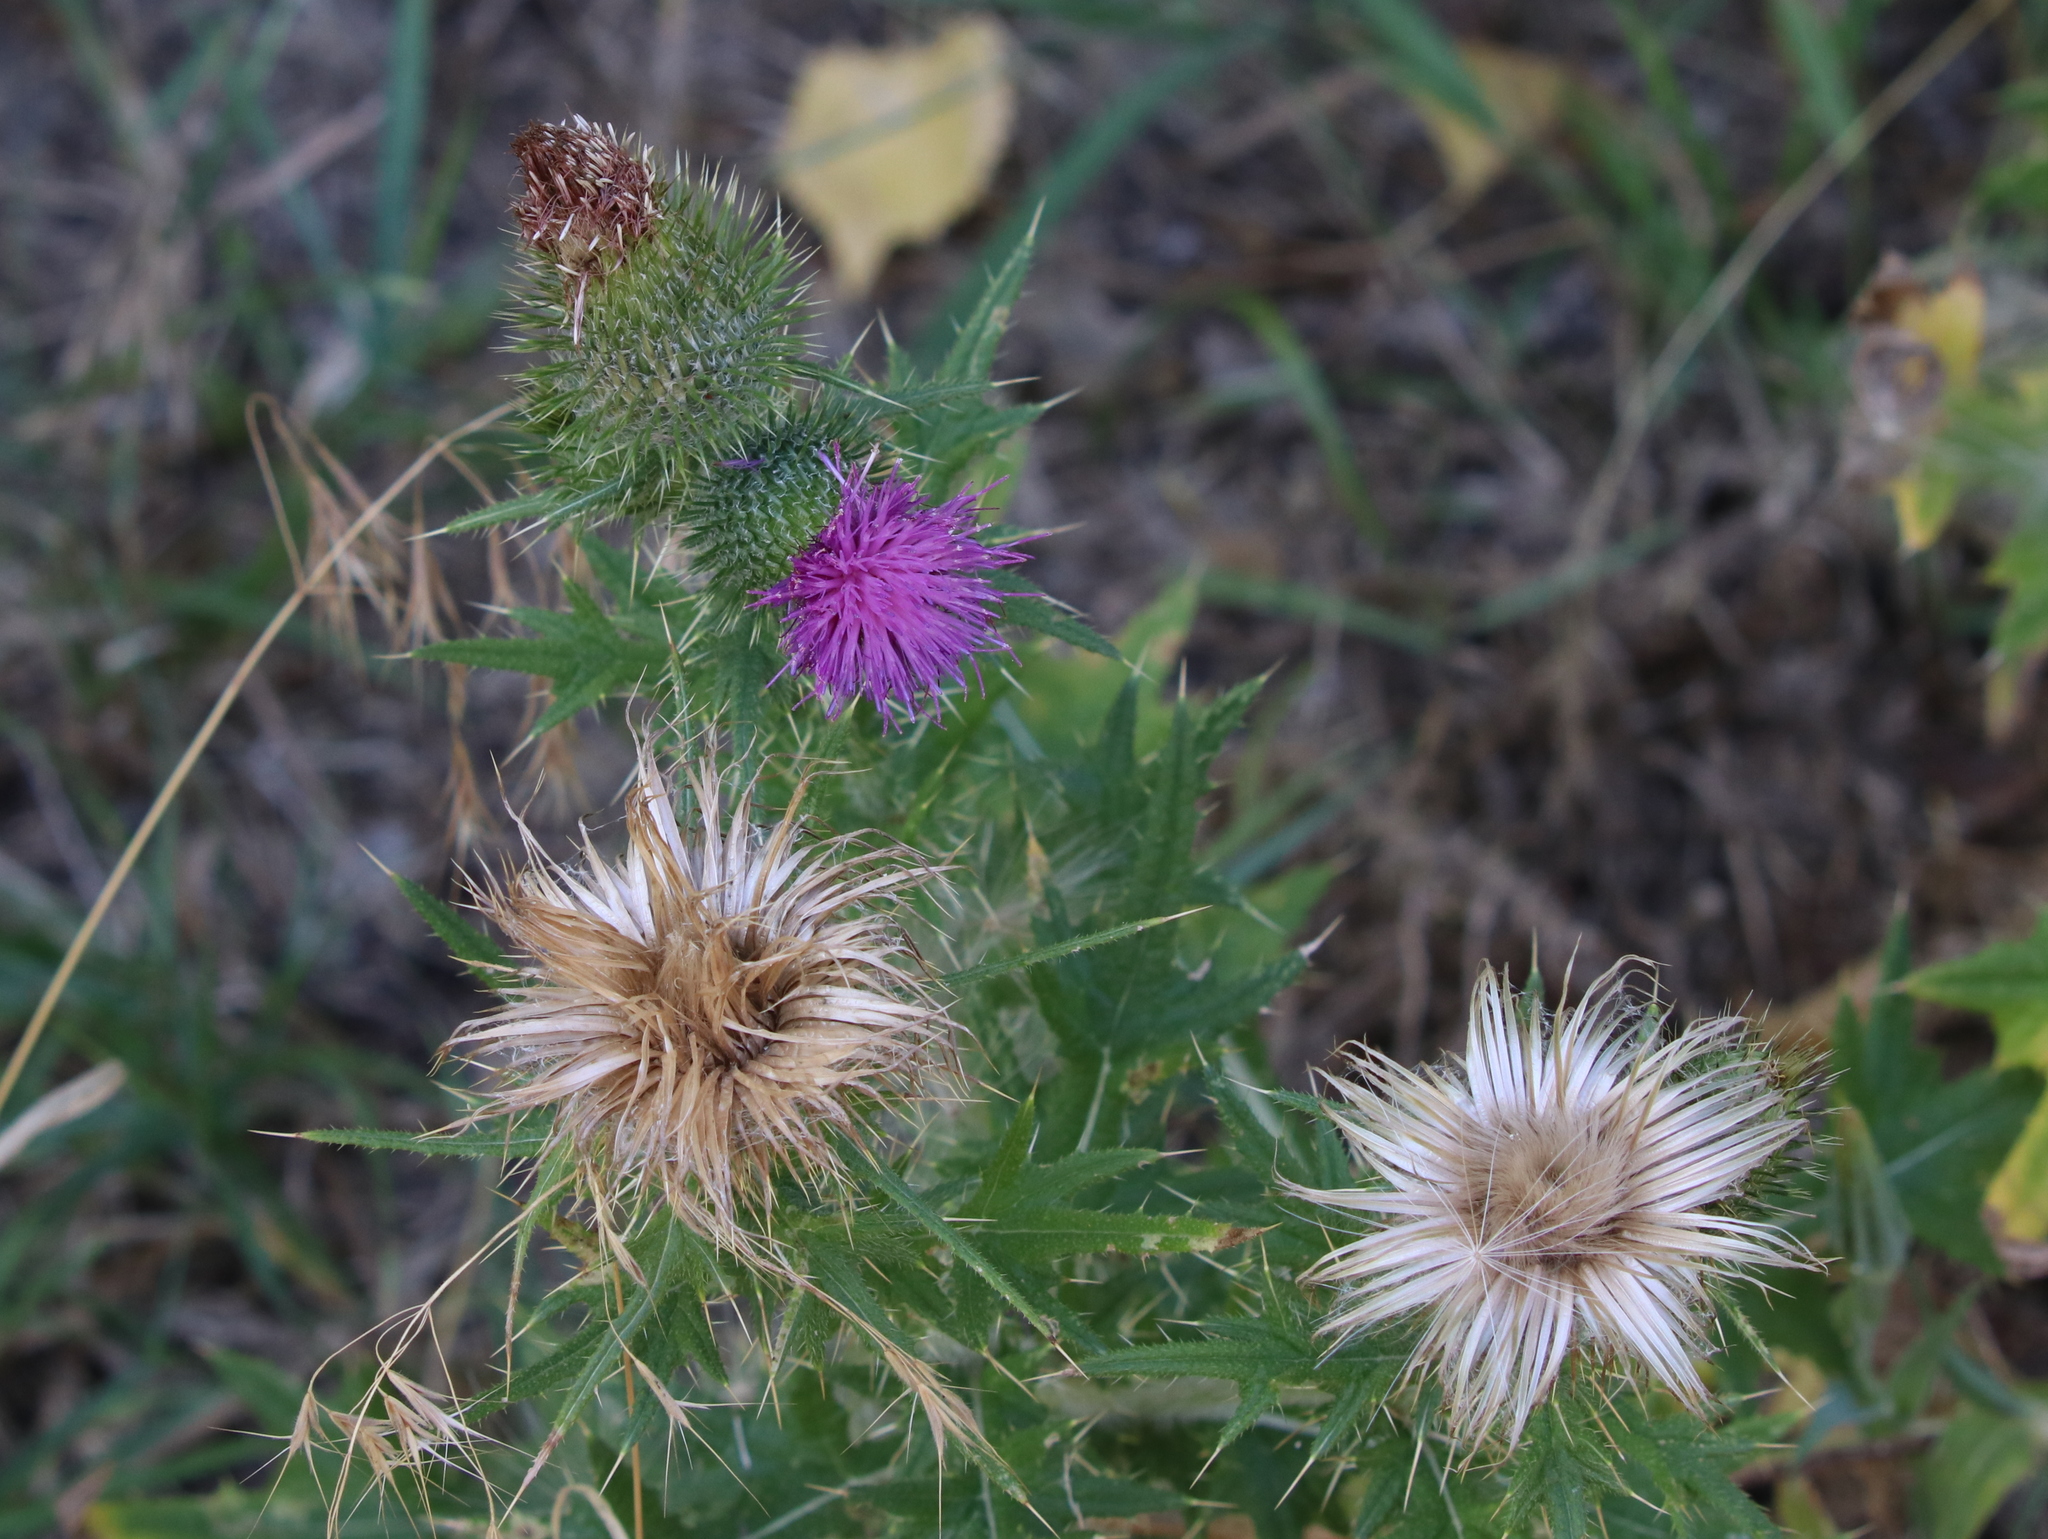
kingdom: Plantae
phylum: Tracheophyta
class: Magnoliopsida
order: Asterales
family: Asteraceae
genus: Cirsium
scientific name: Cirsium vulgare
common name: Bull thistle
